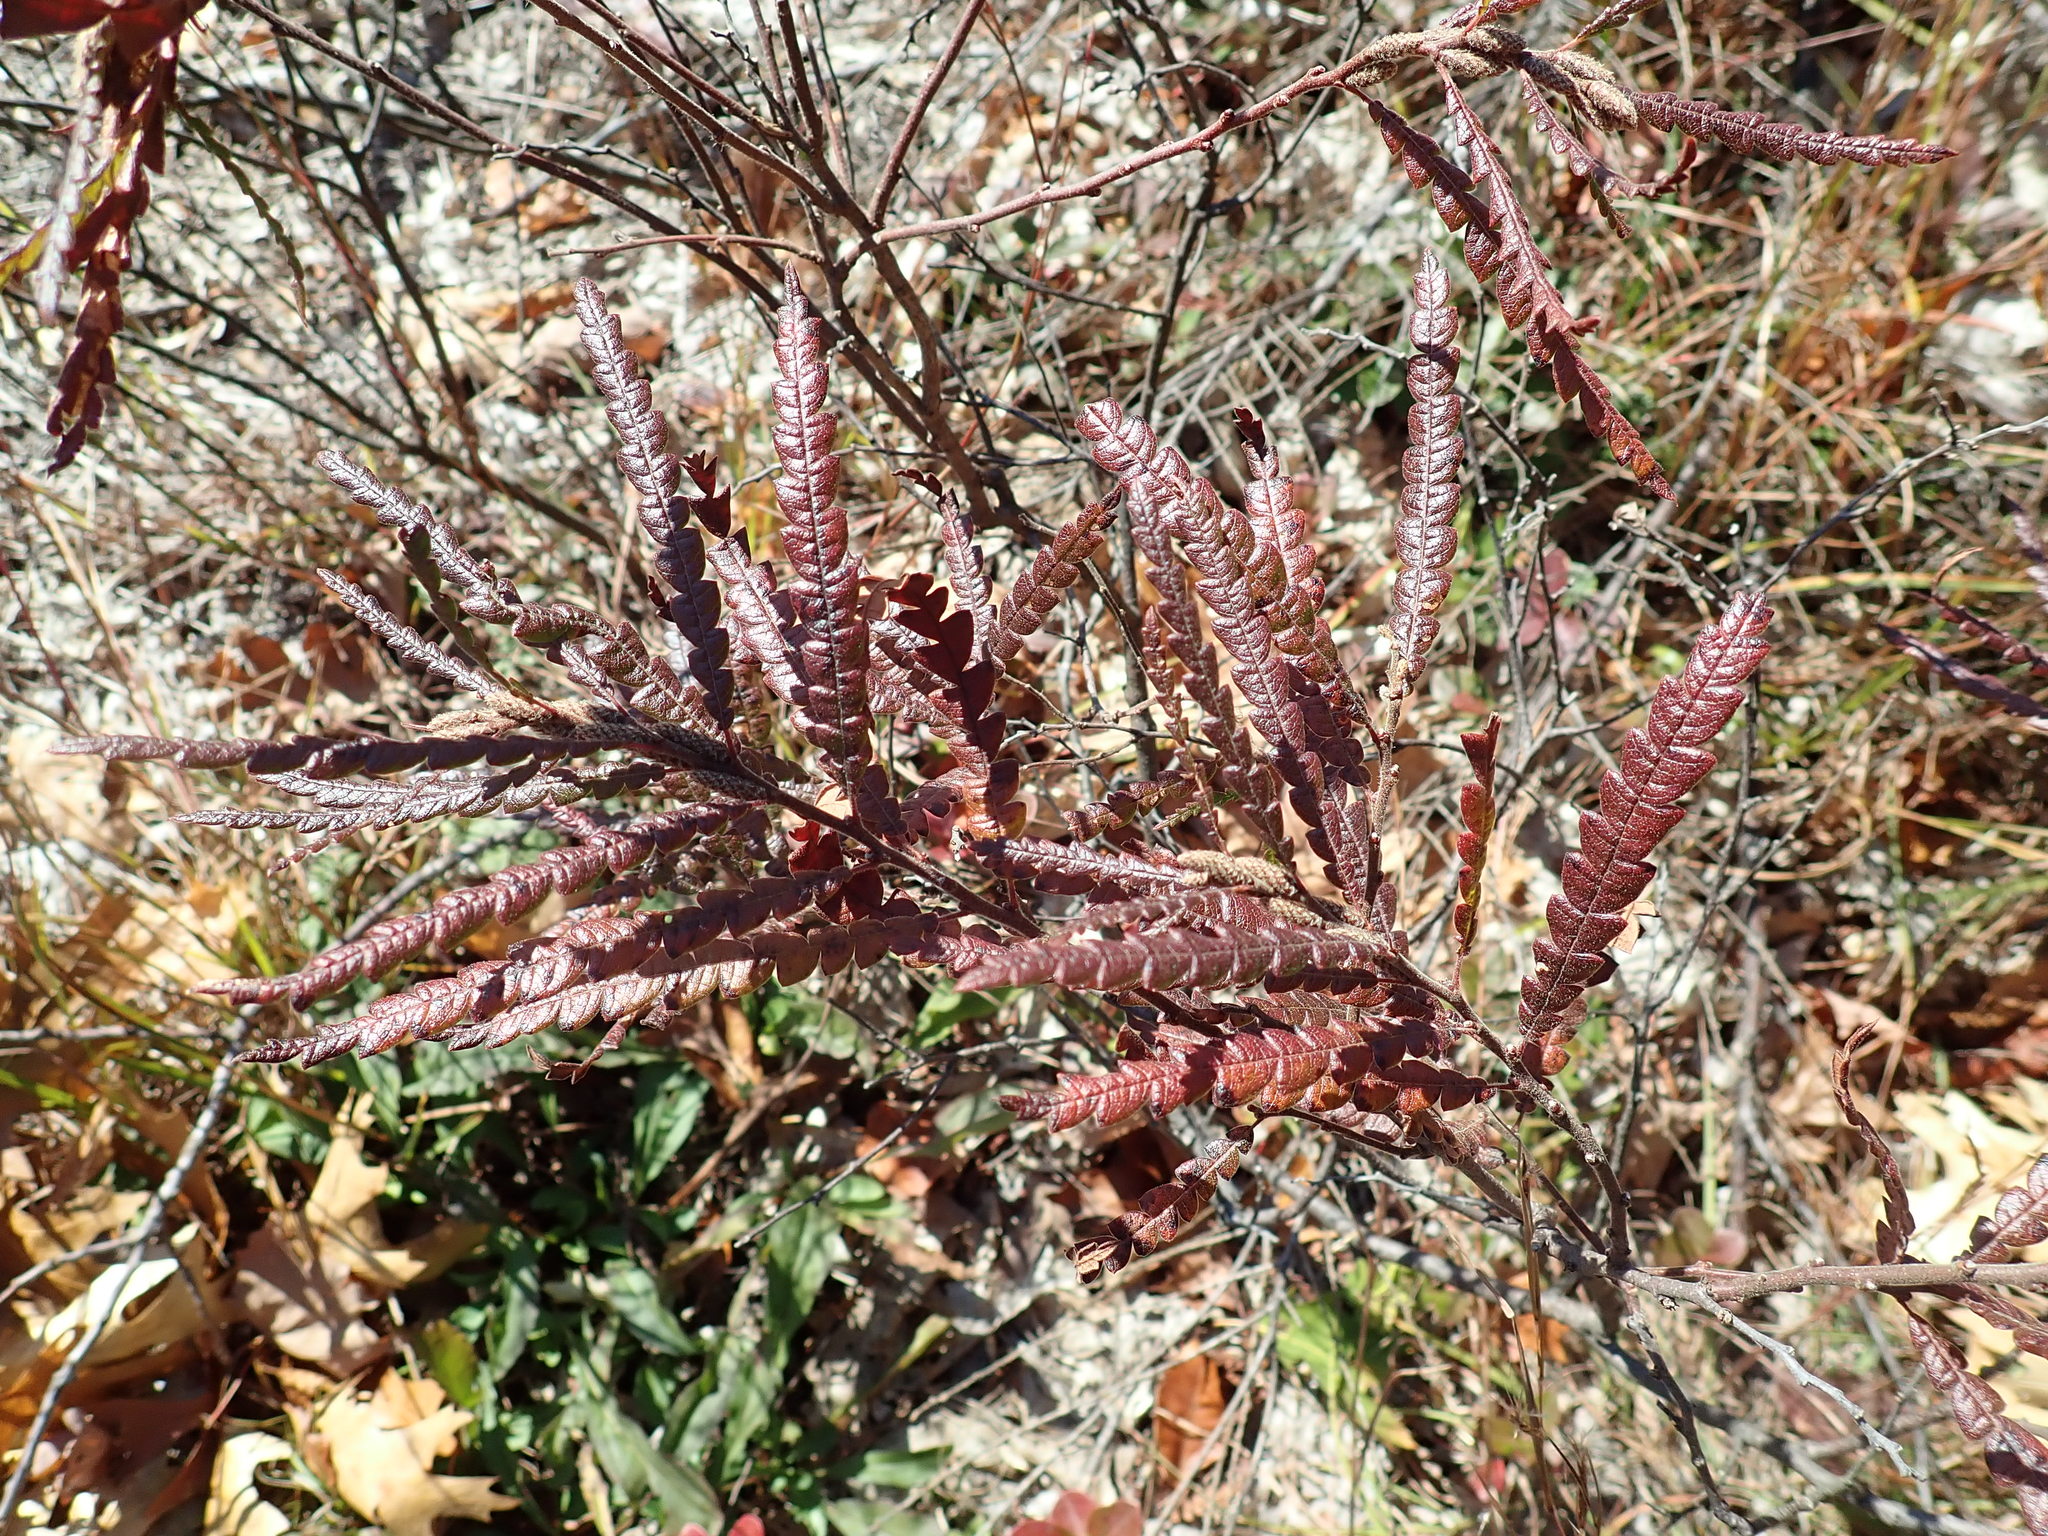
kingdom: Plantae
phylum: Tracheophyta
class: Magnoliopsida
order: Fagales
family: Myricaceae
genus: Comptonia
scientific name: Comptonia peregrina
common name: Sweet-fern
